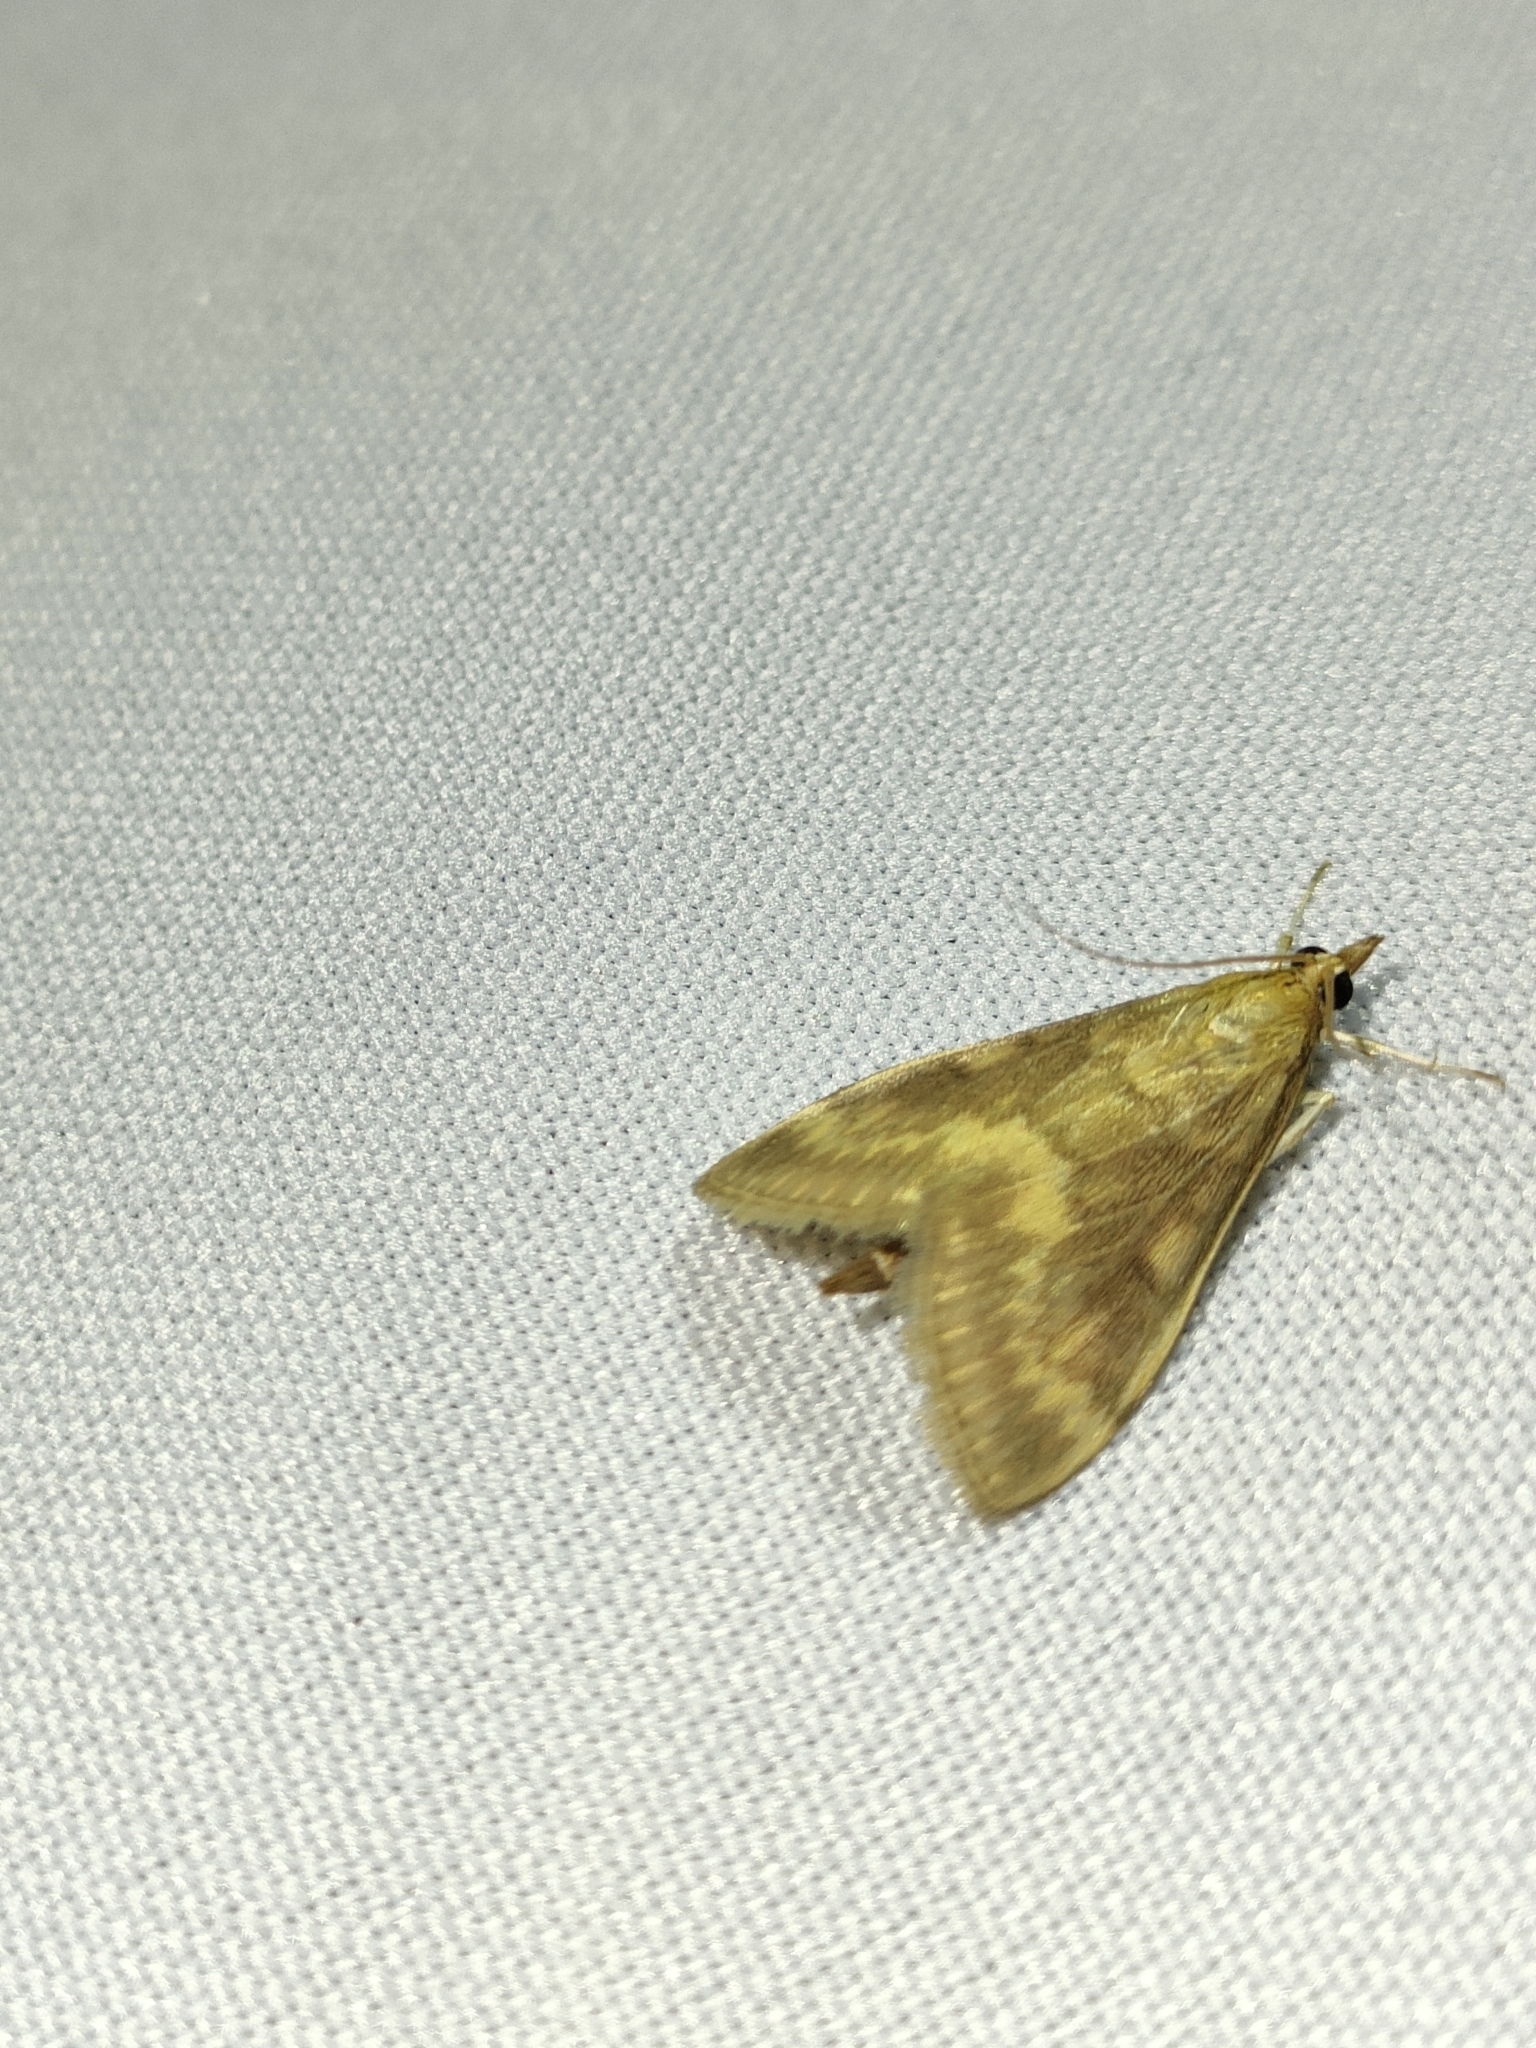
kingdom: Animalia
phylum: Arthropoda
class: Insecta
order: Lepidoptera
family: Crambidae
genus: Ostrinia
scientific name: Ostrinia nubilalis
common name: European corn borer
